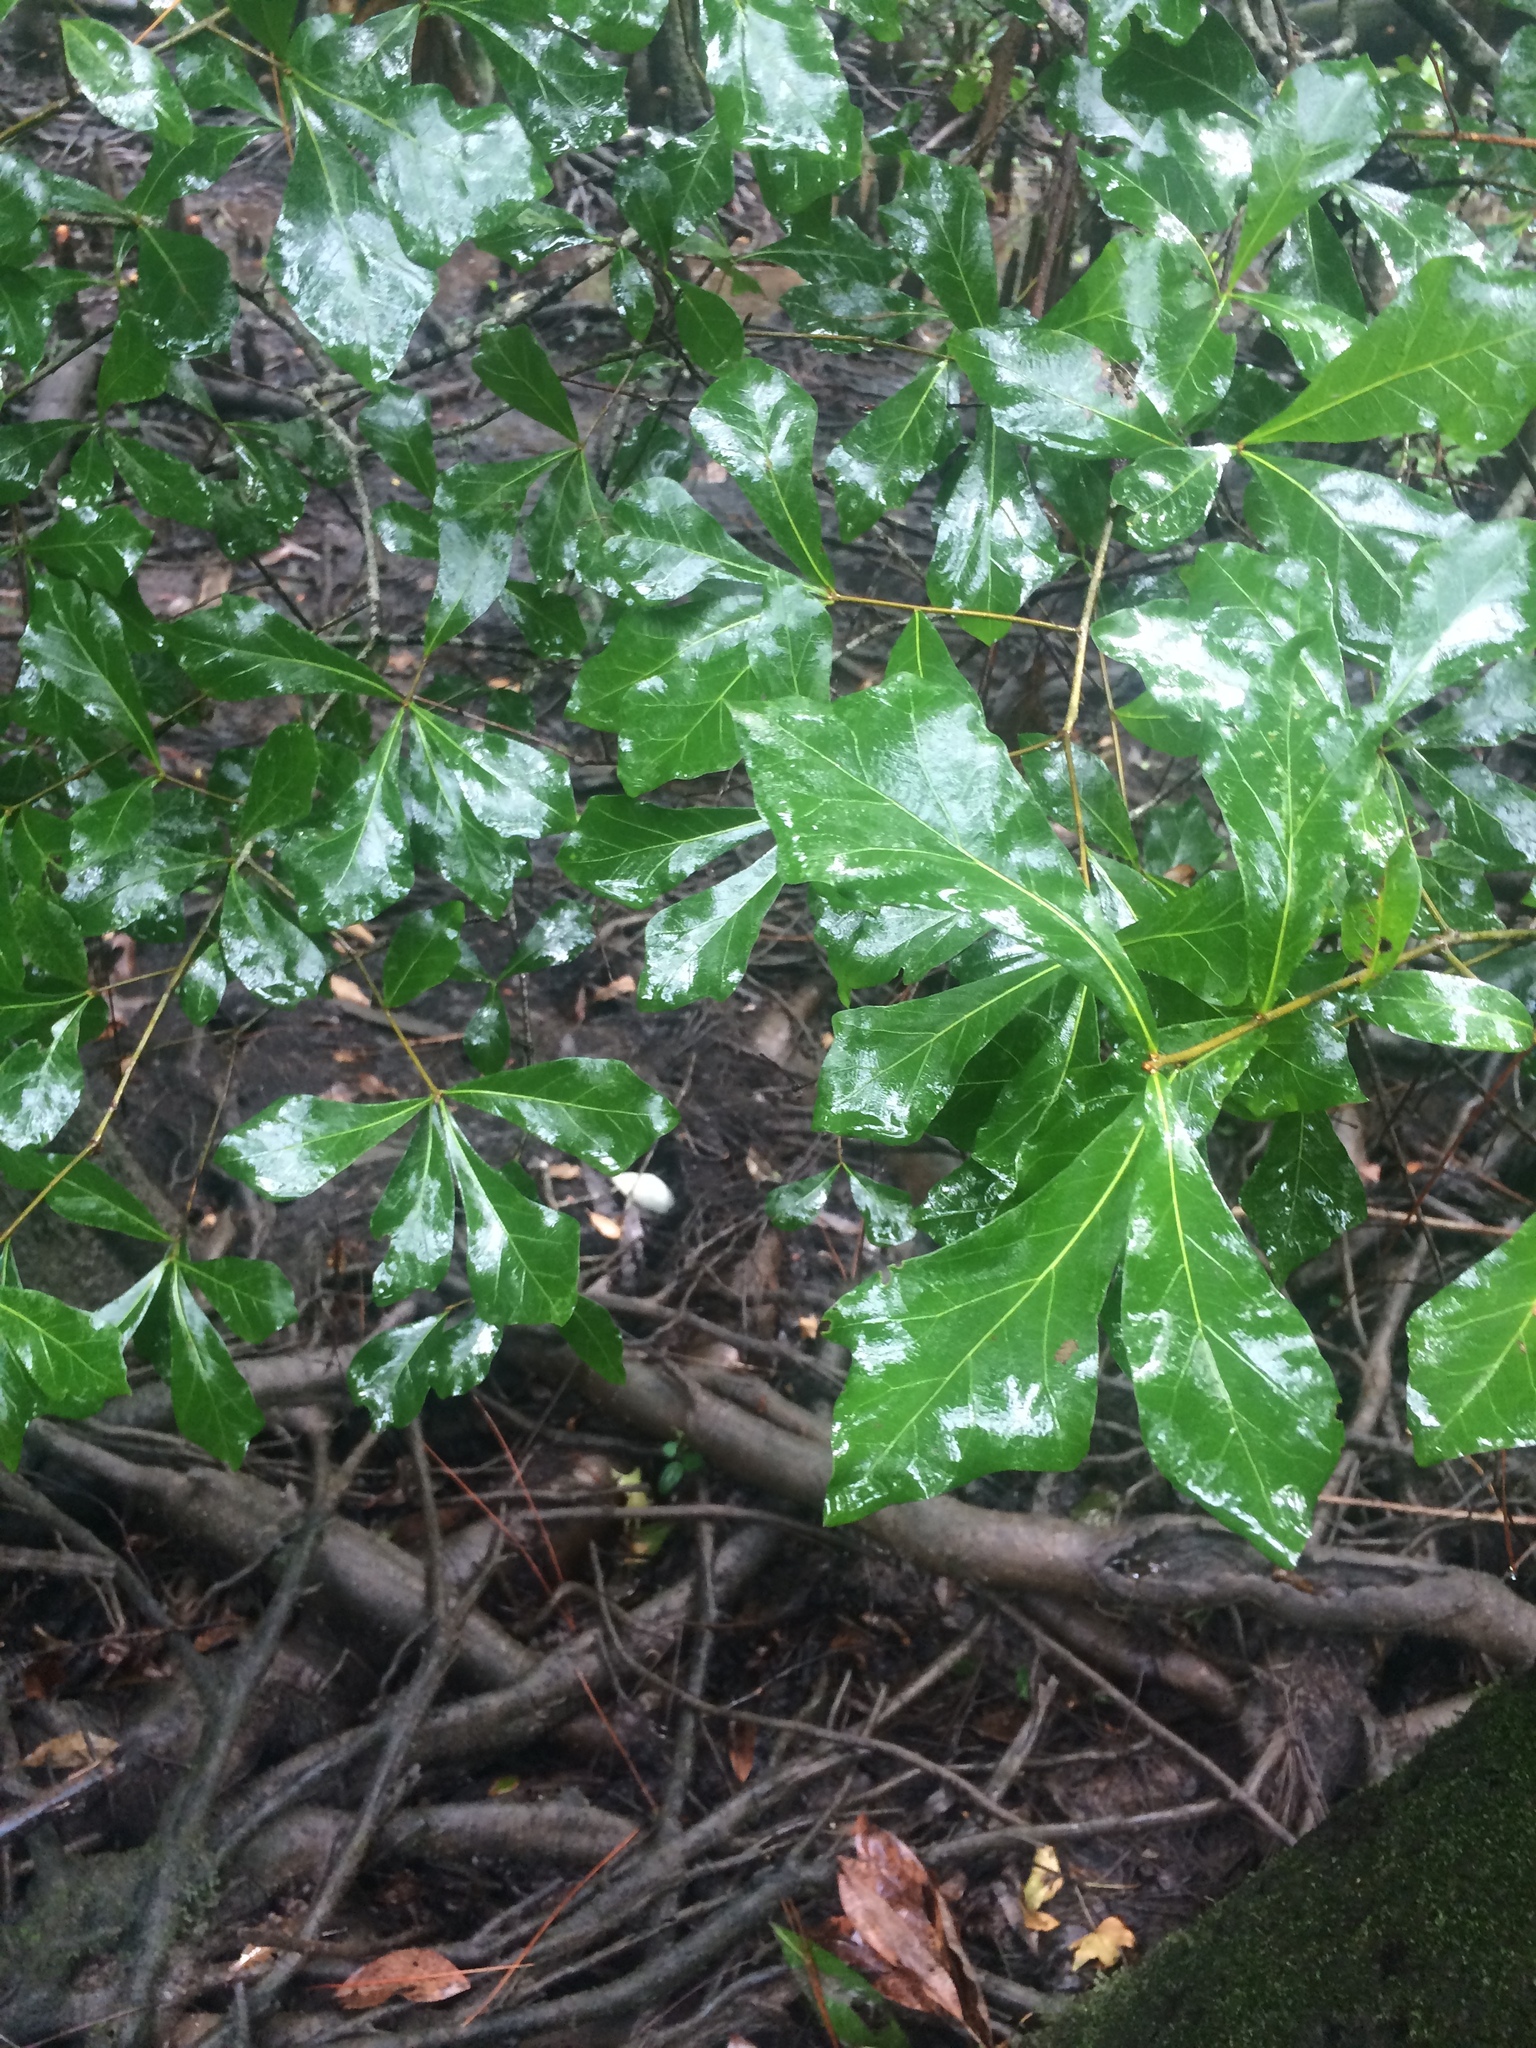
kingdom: Plantae
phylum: Tracheophyta
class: Magnoliopsida
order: Fagales
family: Fagaceae
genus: Quercus
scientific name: Quercus nigra
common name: Water oak
